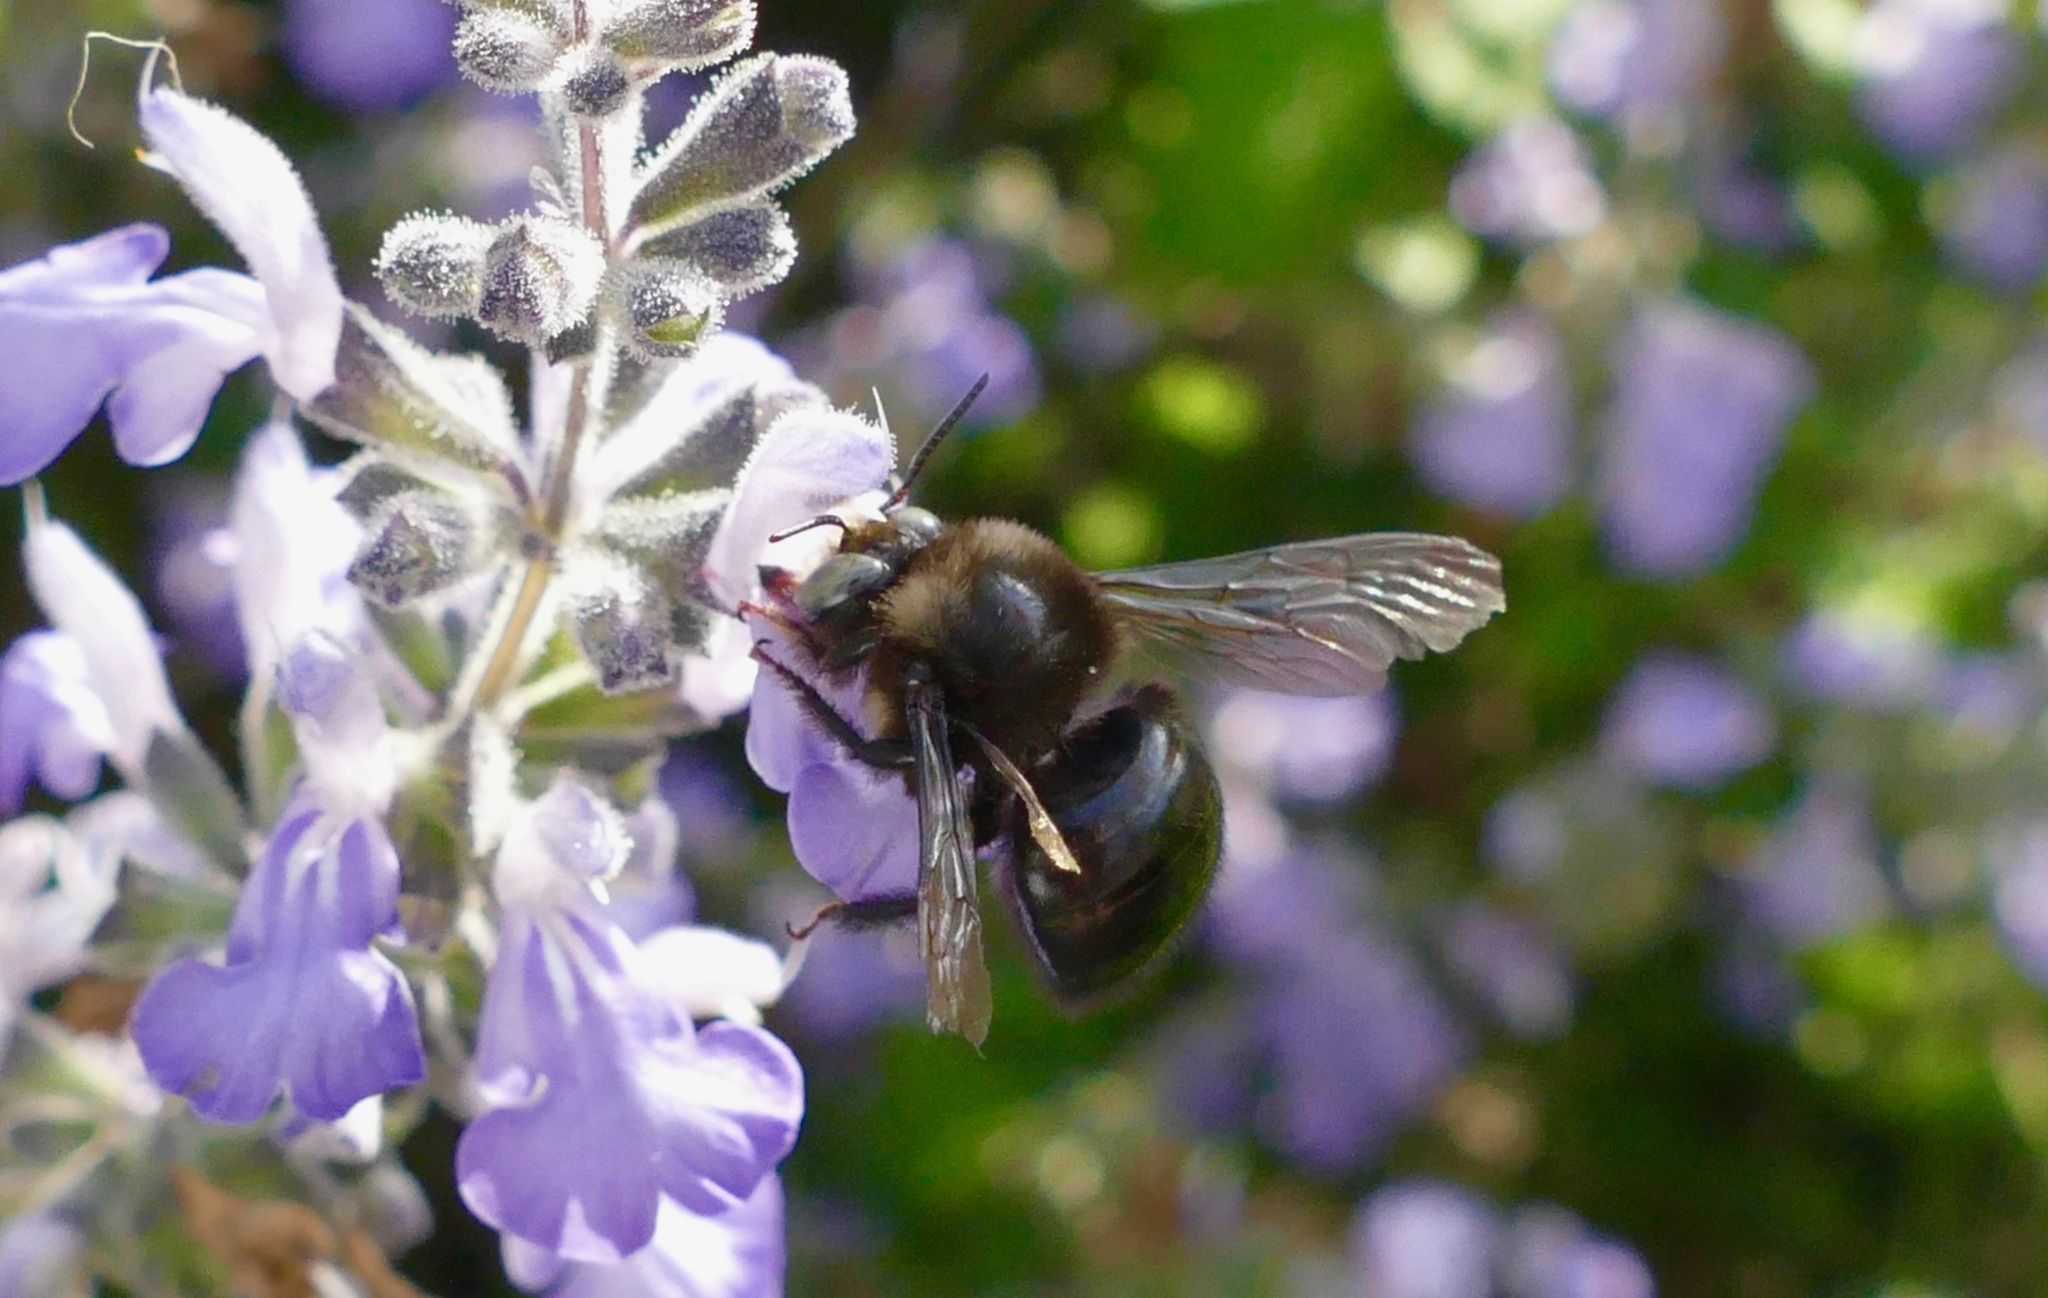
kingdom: Animalia
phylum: Arthropoda
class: Insecta
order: Hymenoptera
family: Apidae
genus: Xylocopa
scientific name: Xylocopa tabaniformis
